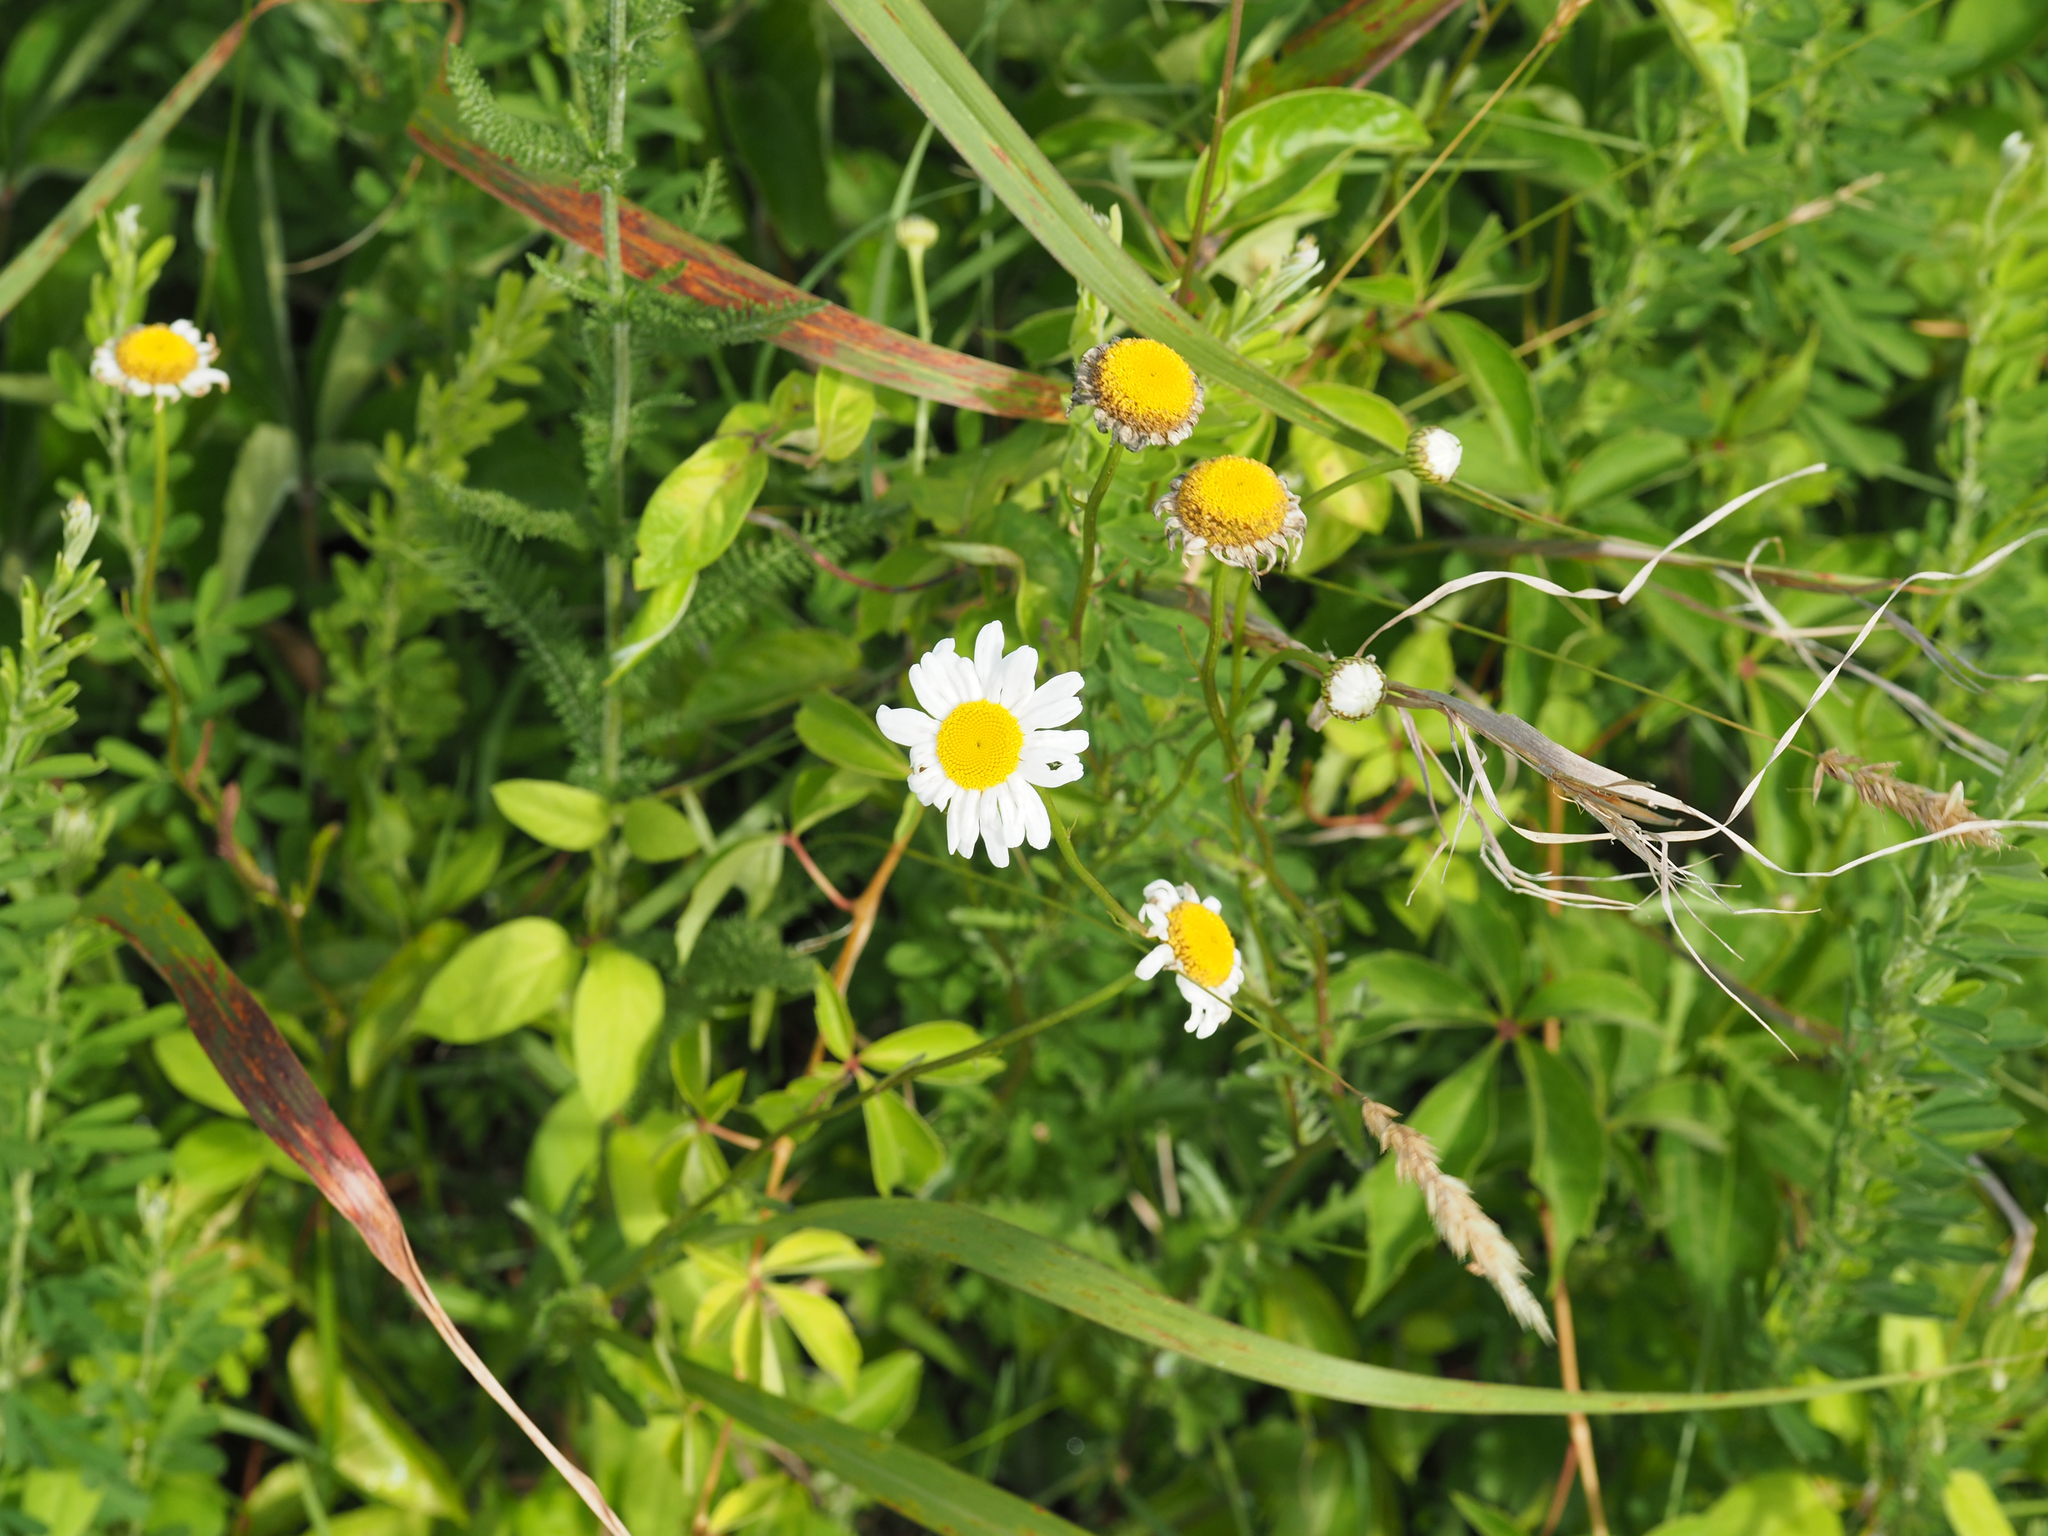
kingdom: Plantae
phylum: Tracheophyta
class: Magnoliopsida
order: Asterales
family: Asteraceae
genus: Leucanthemum
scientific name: Leucanthemum vulgare
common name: Oxeye daisy
